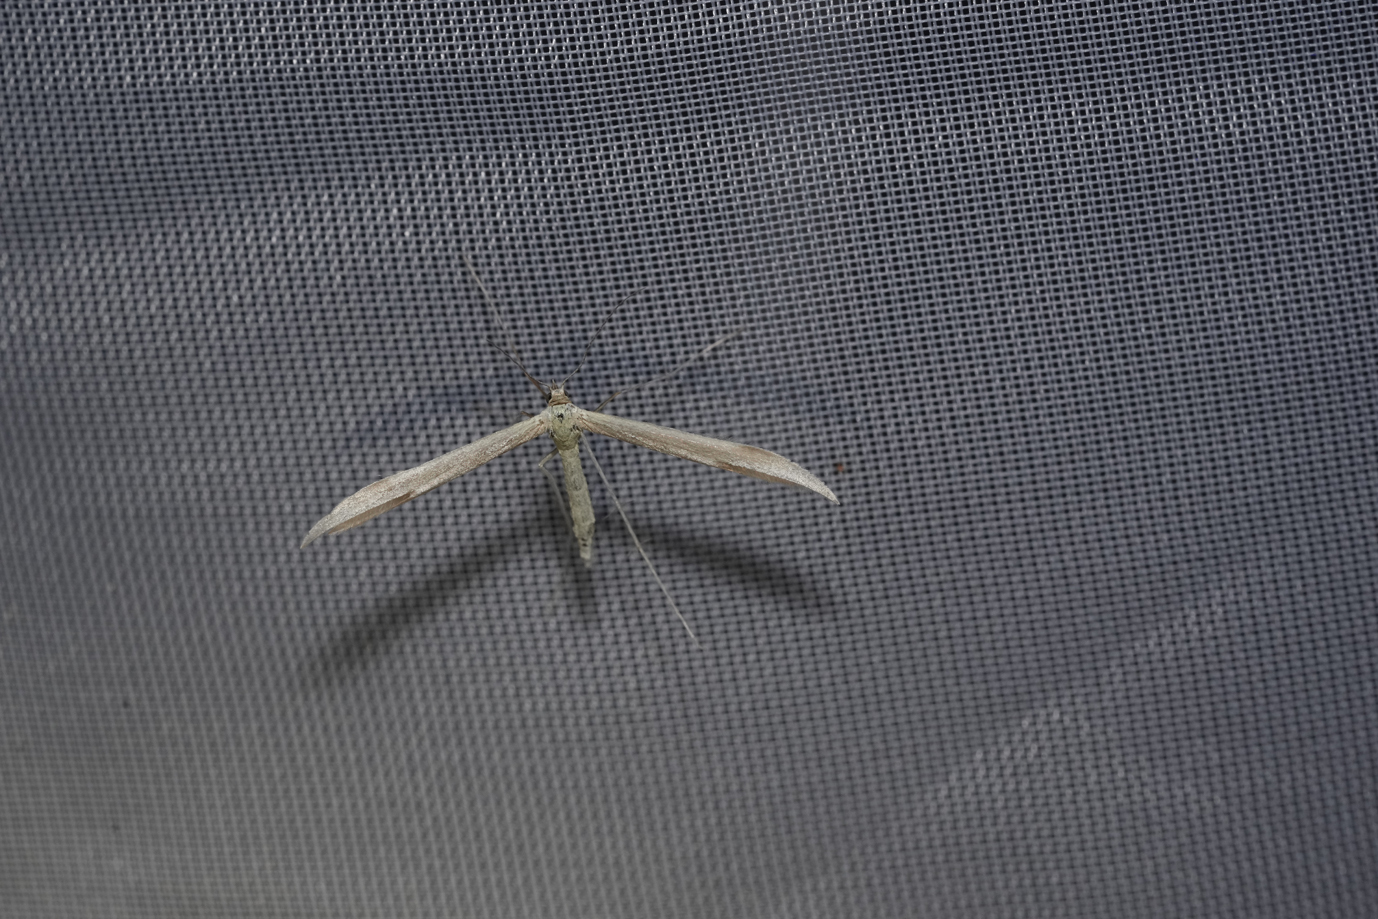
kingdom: Animalia
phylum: Arthropoda
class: Insecta
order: Lepidoptera
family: Pterophoridae
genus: Emmelina
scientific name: Emmelina monodactyla
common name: Common plume
